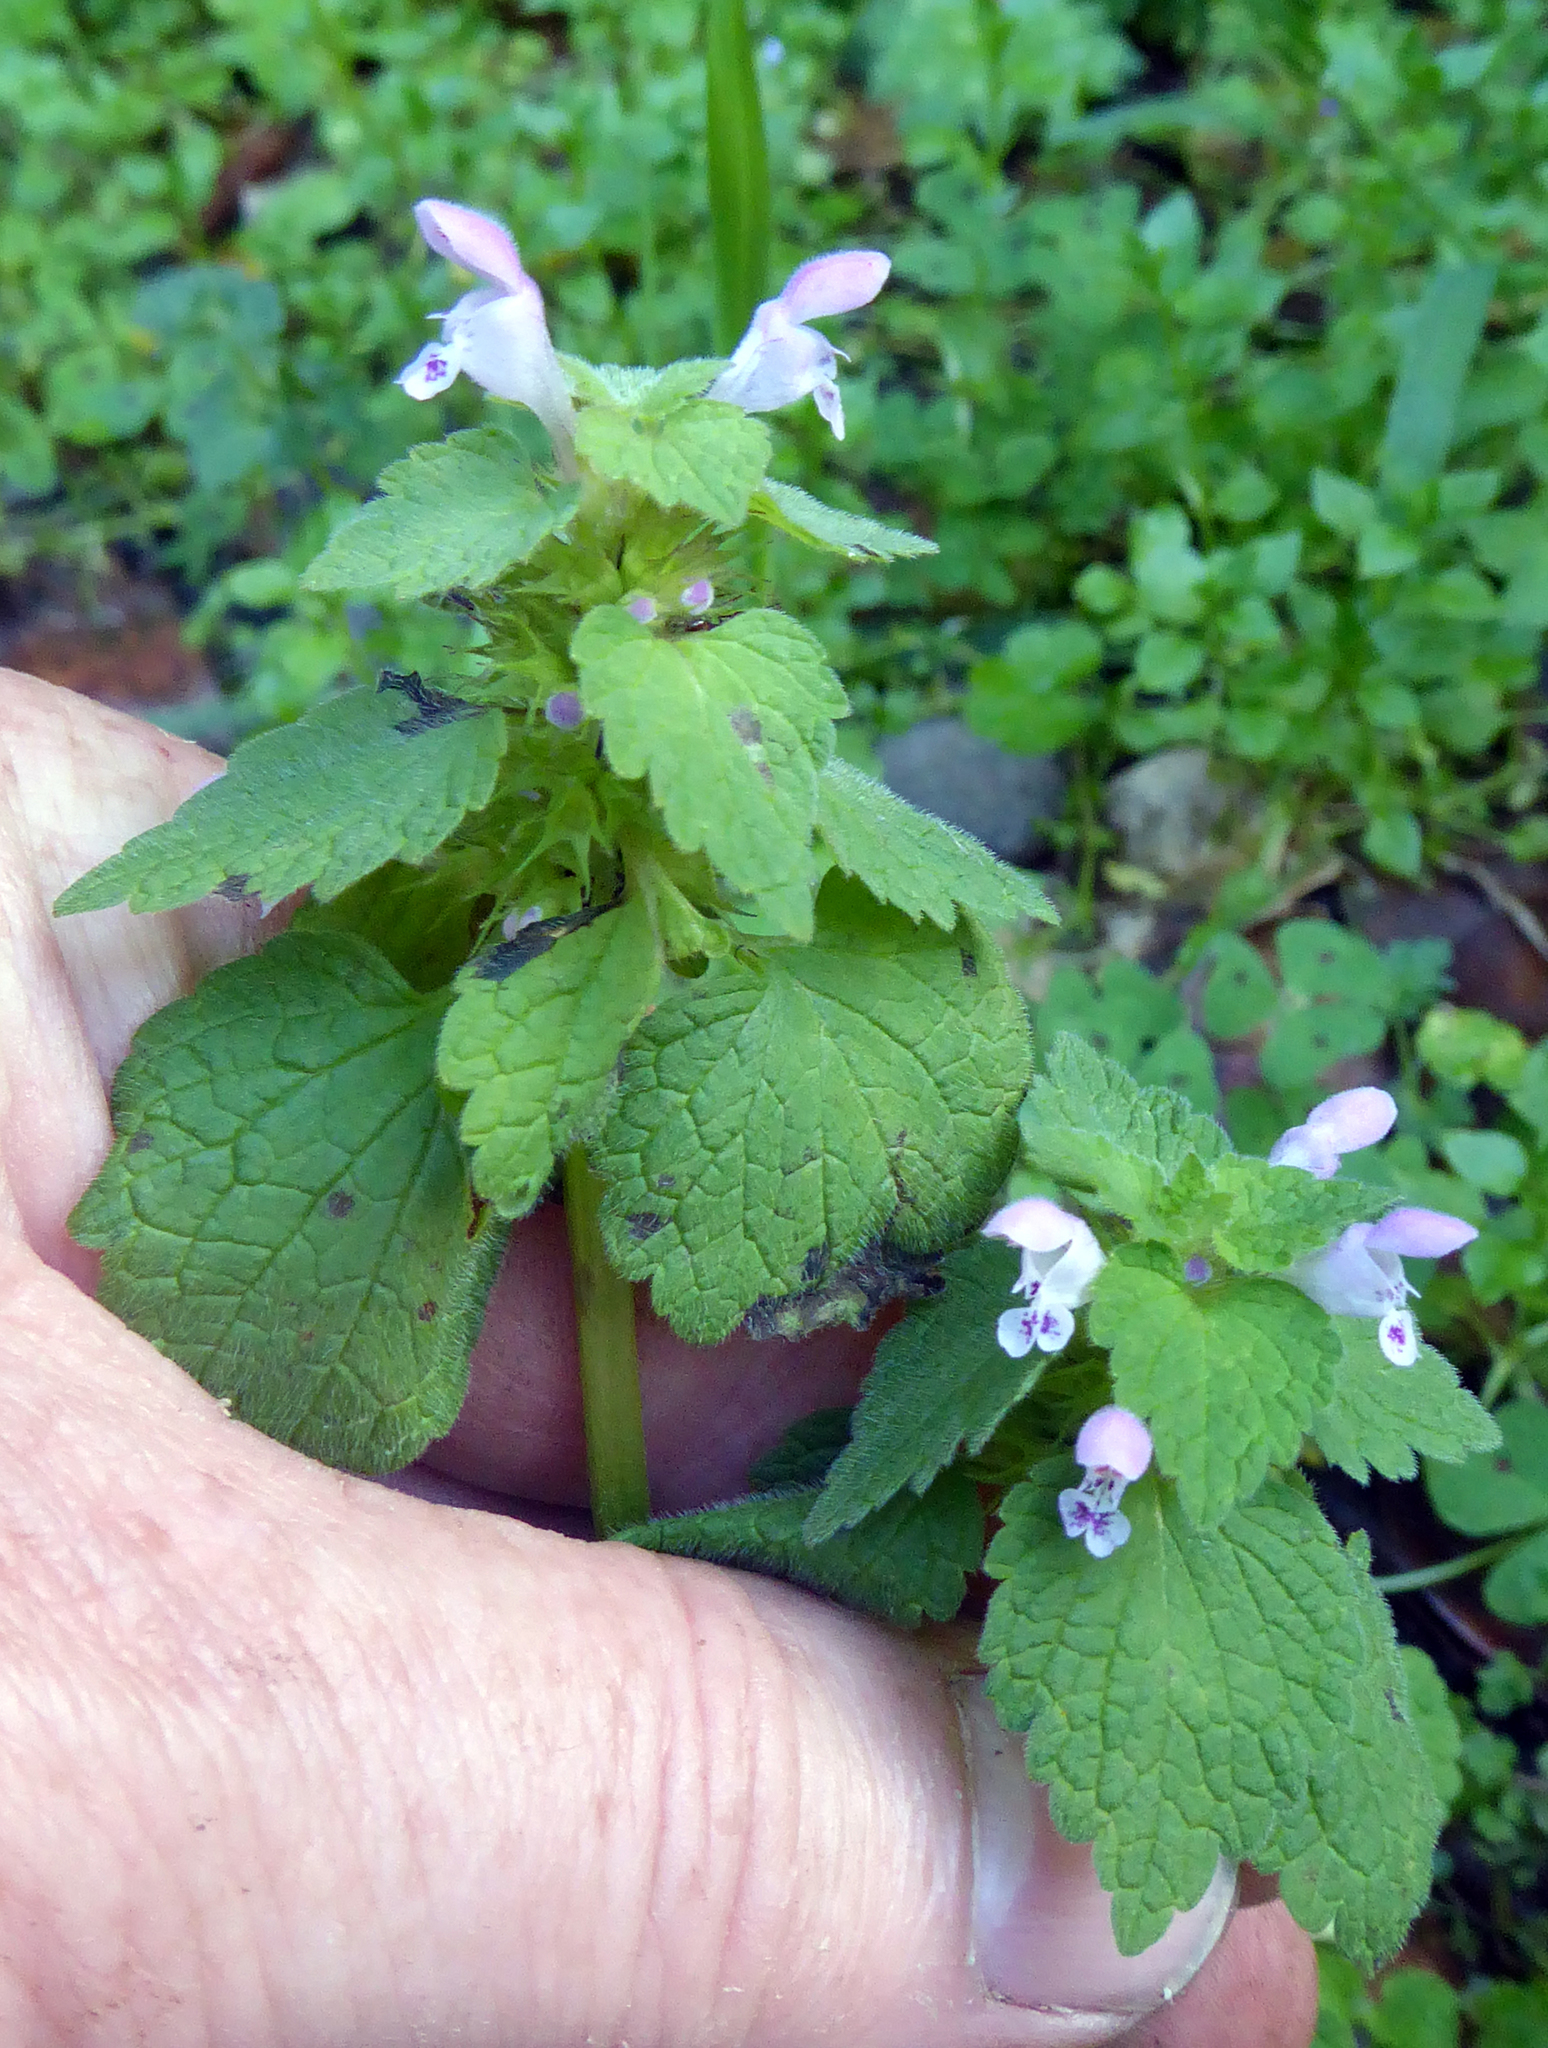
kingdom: Plantae
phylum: Tracheophyta
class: Magnoliopsida
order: Lamiales
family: Lamiaceae
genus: Lamium
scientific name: Lamium purpureum
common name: Red dead-nettle
